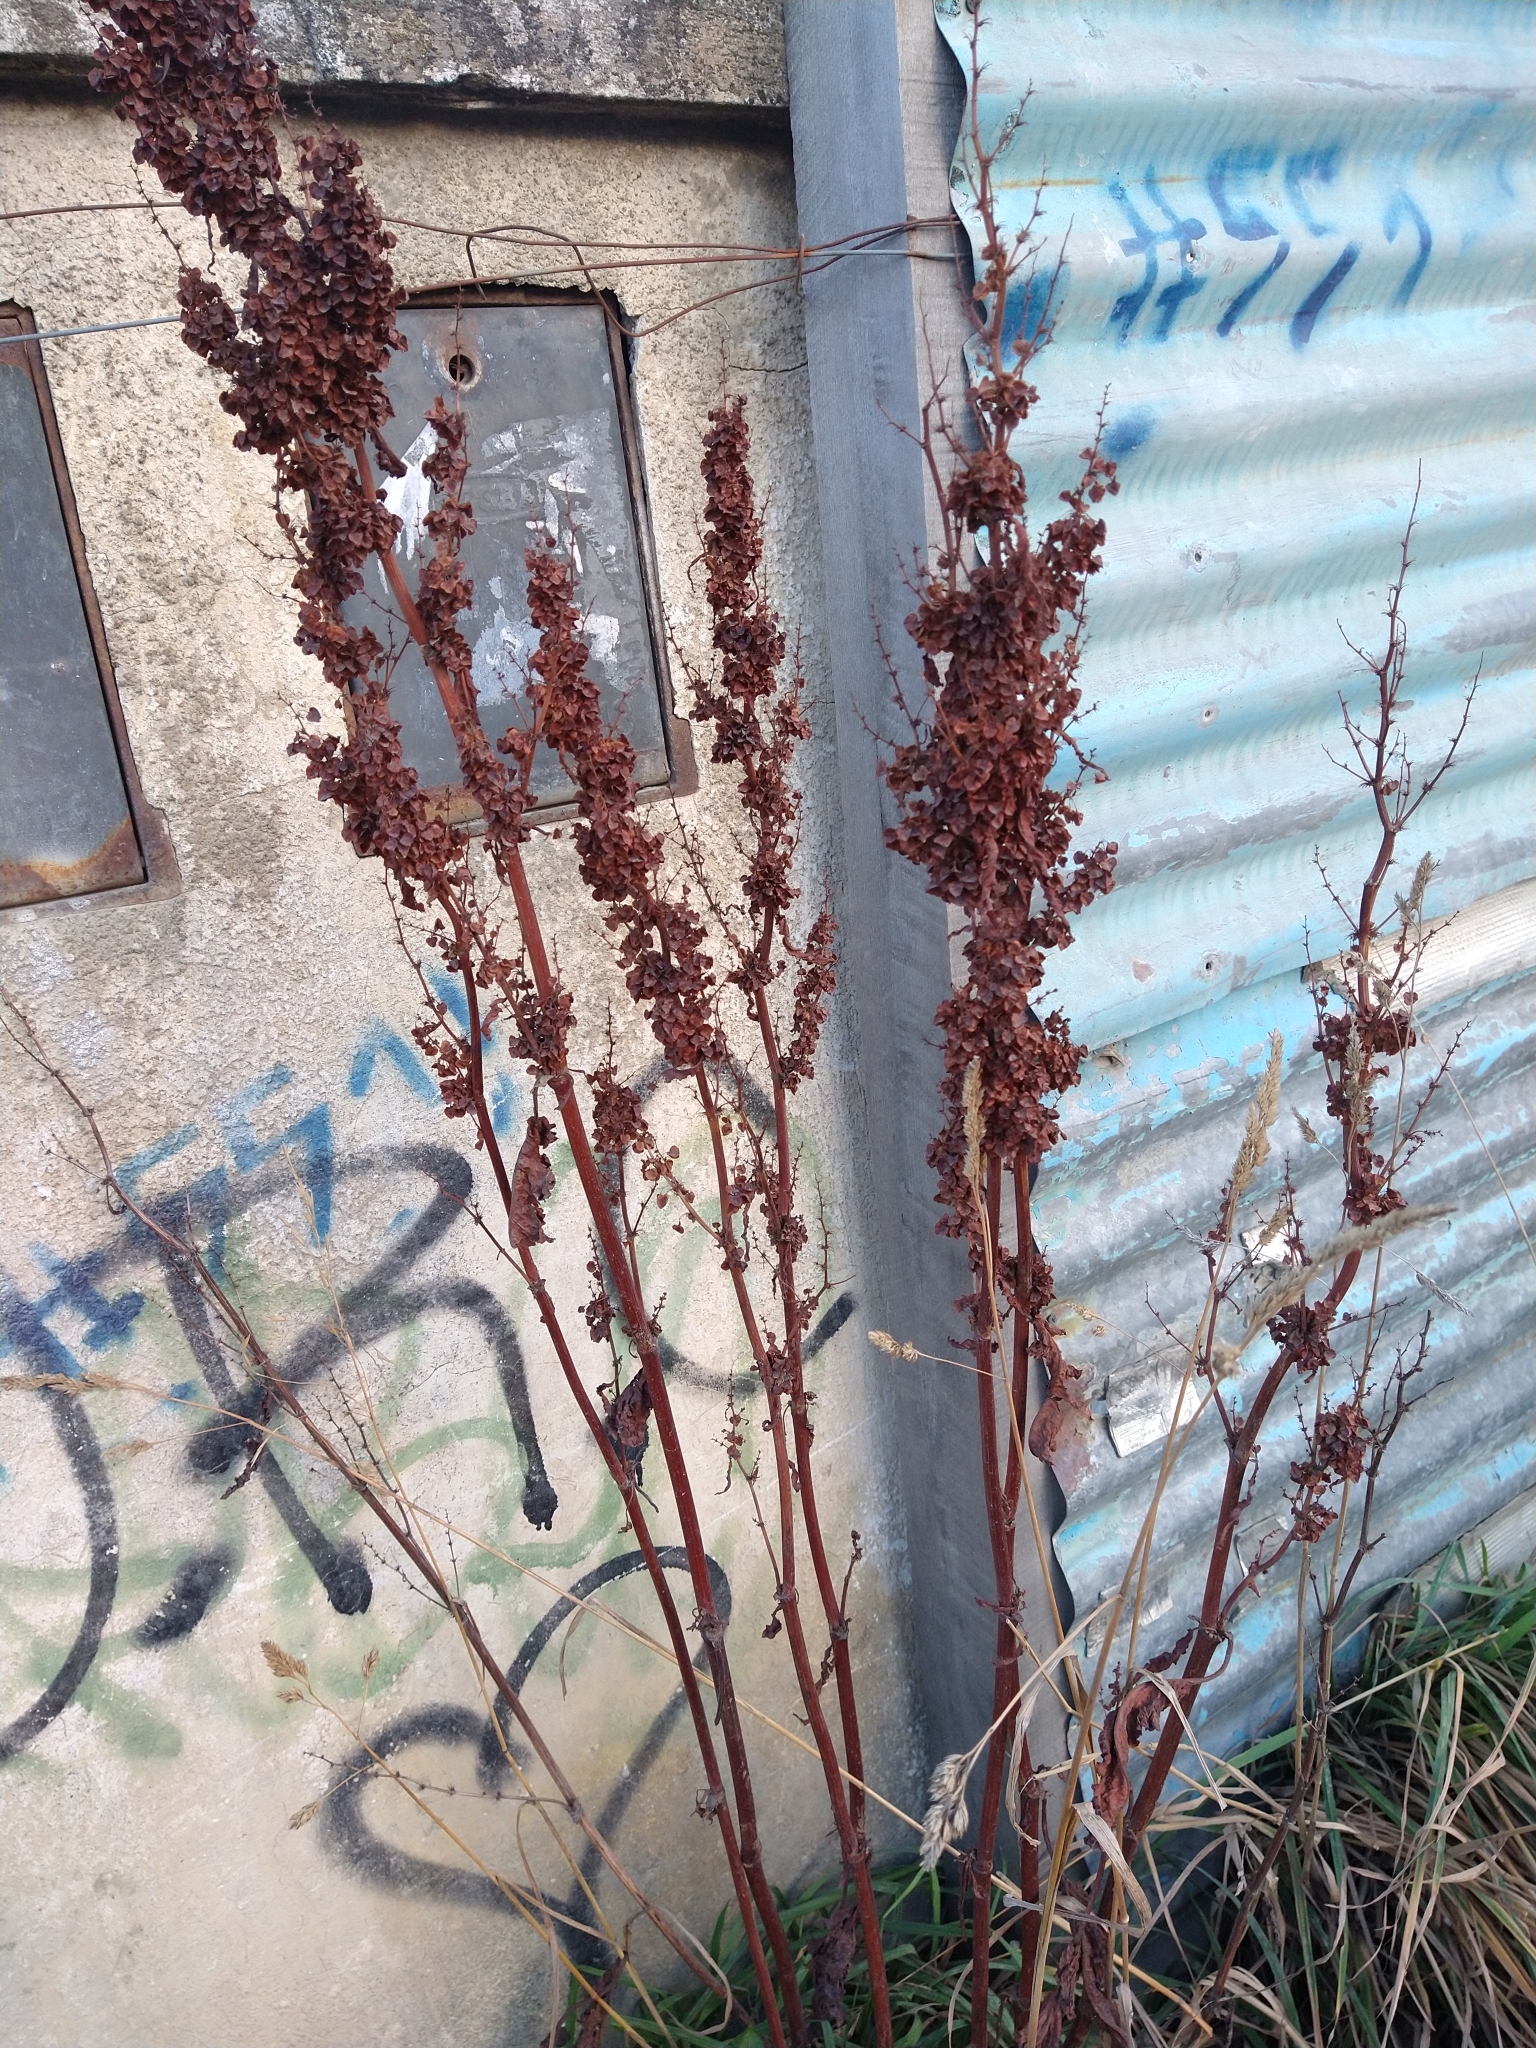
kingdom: Plantae
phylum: Tracheophyta
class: Magnoliopsida
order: Caryophyllales
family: Polygonaceae
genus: Rumex
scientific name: Rumex crispus
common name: Curled dock
